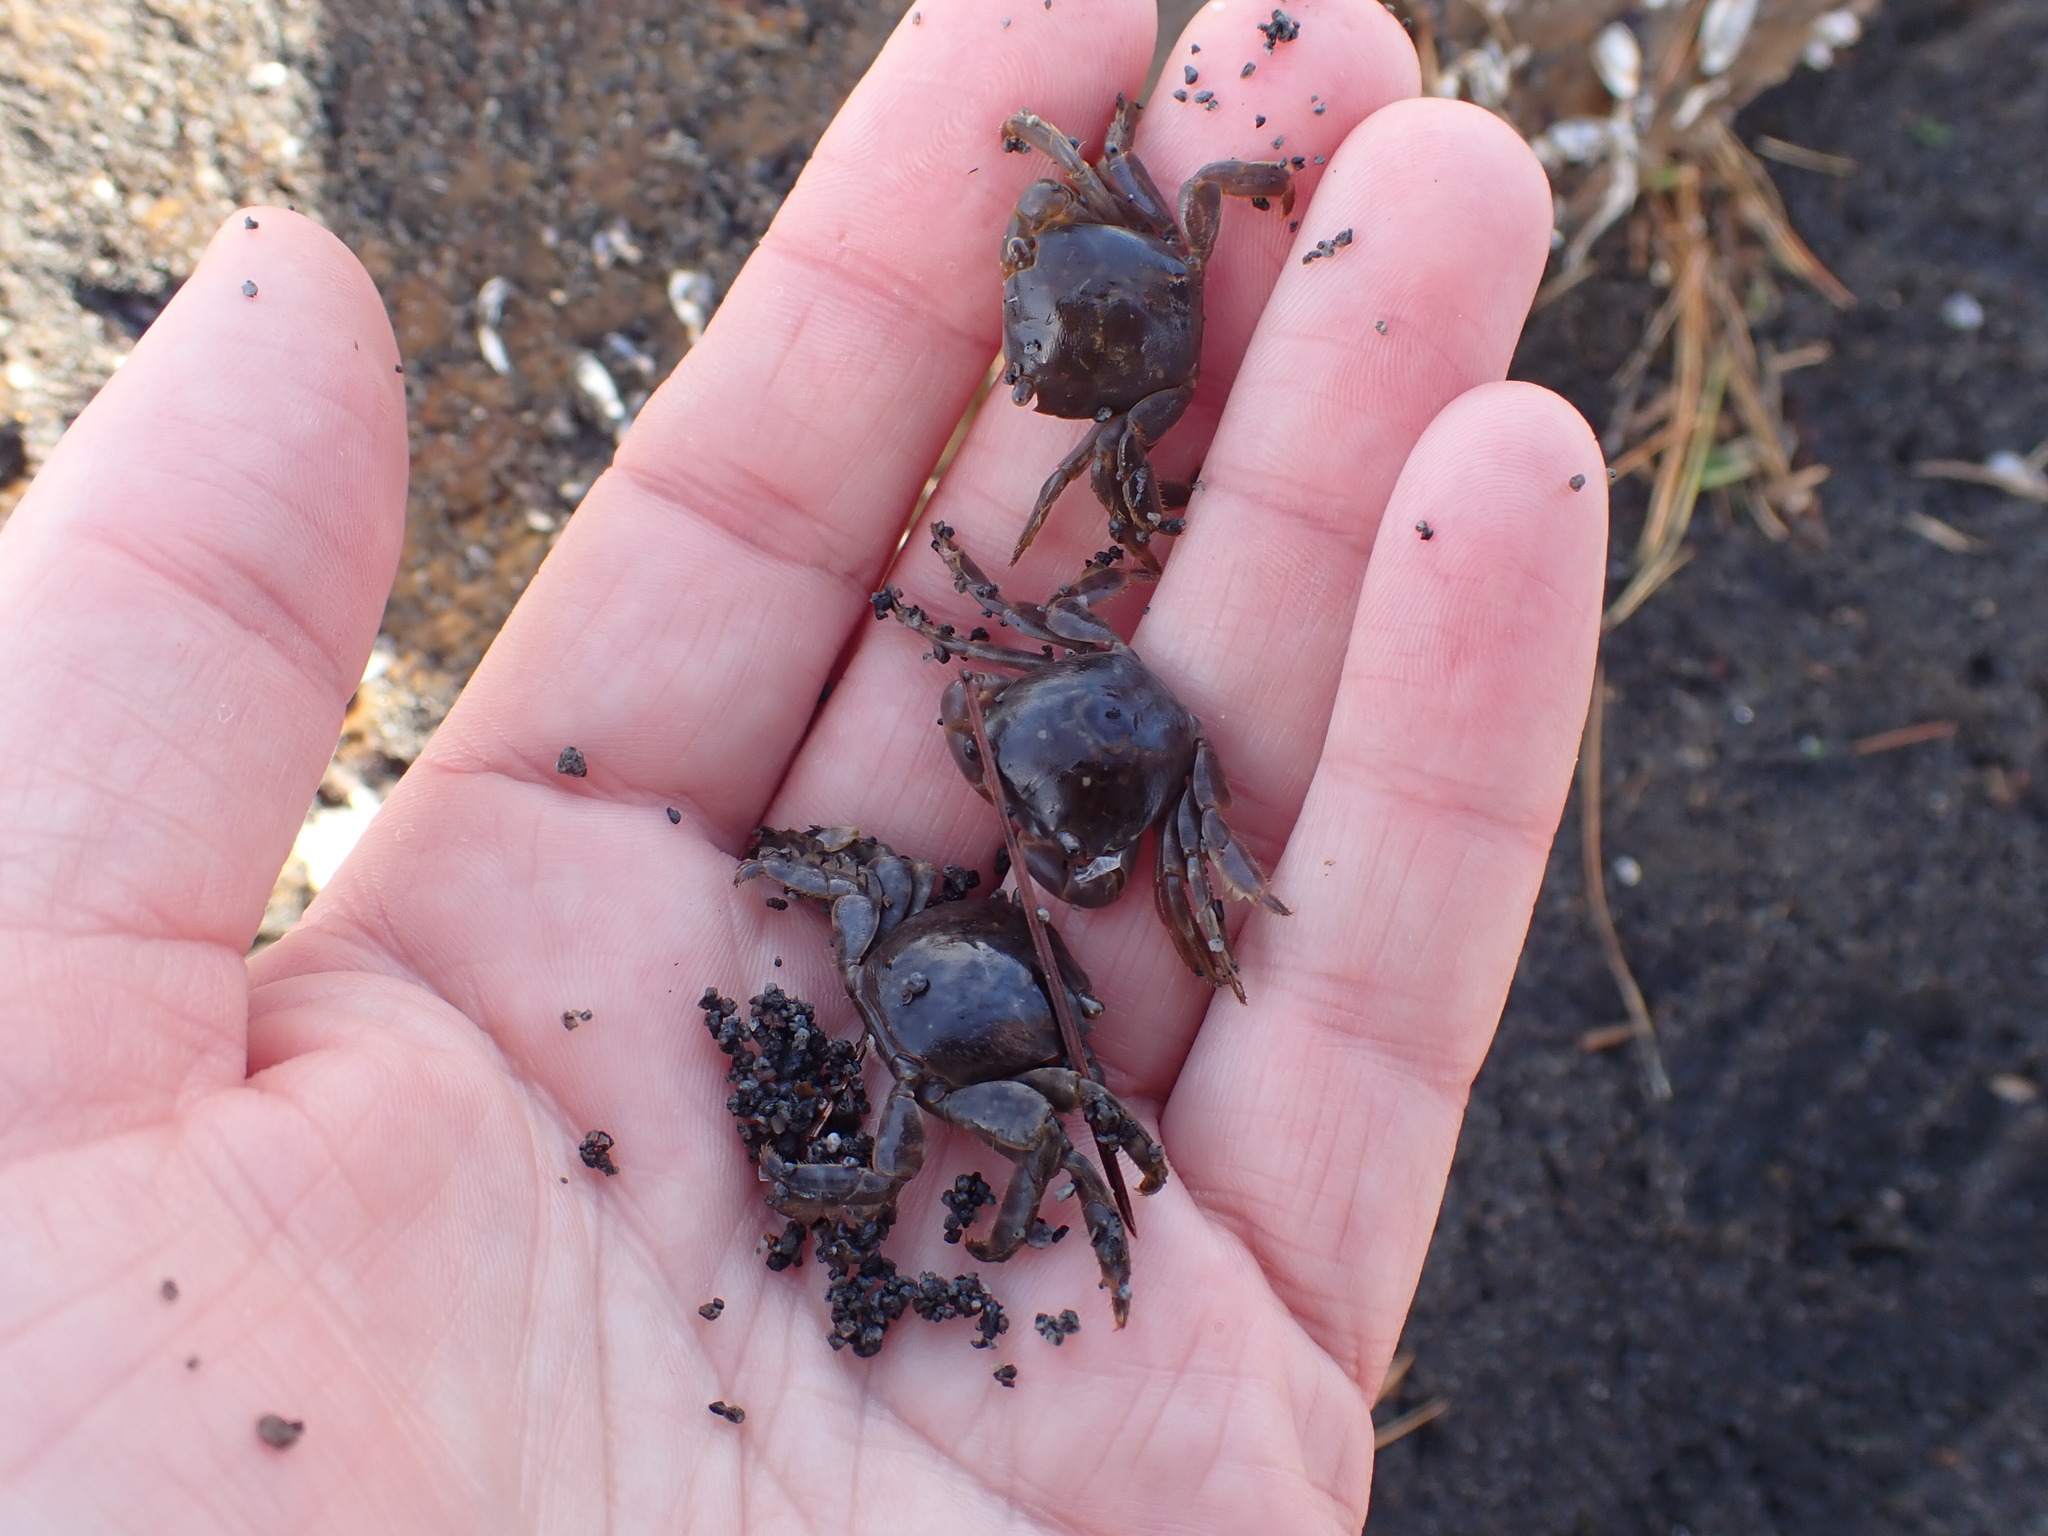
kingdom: Animalia
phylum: Arthropoda
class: Malacostraca
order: Decapoda
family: Grapsidae
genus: Planes
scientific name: Planes minutus
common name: Gulf weed crab
